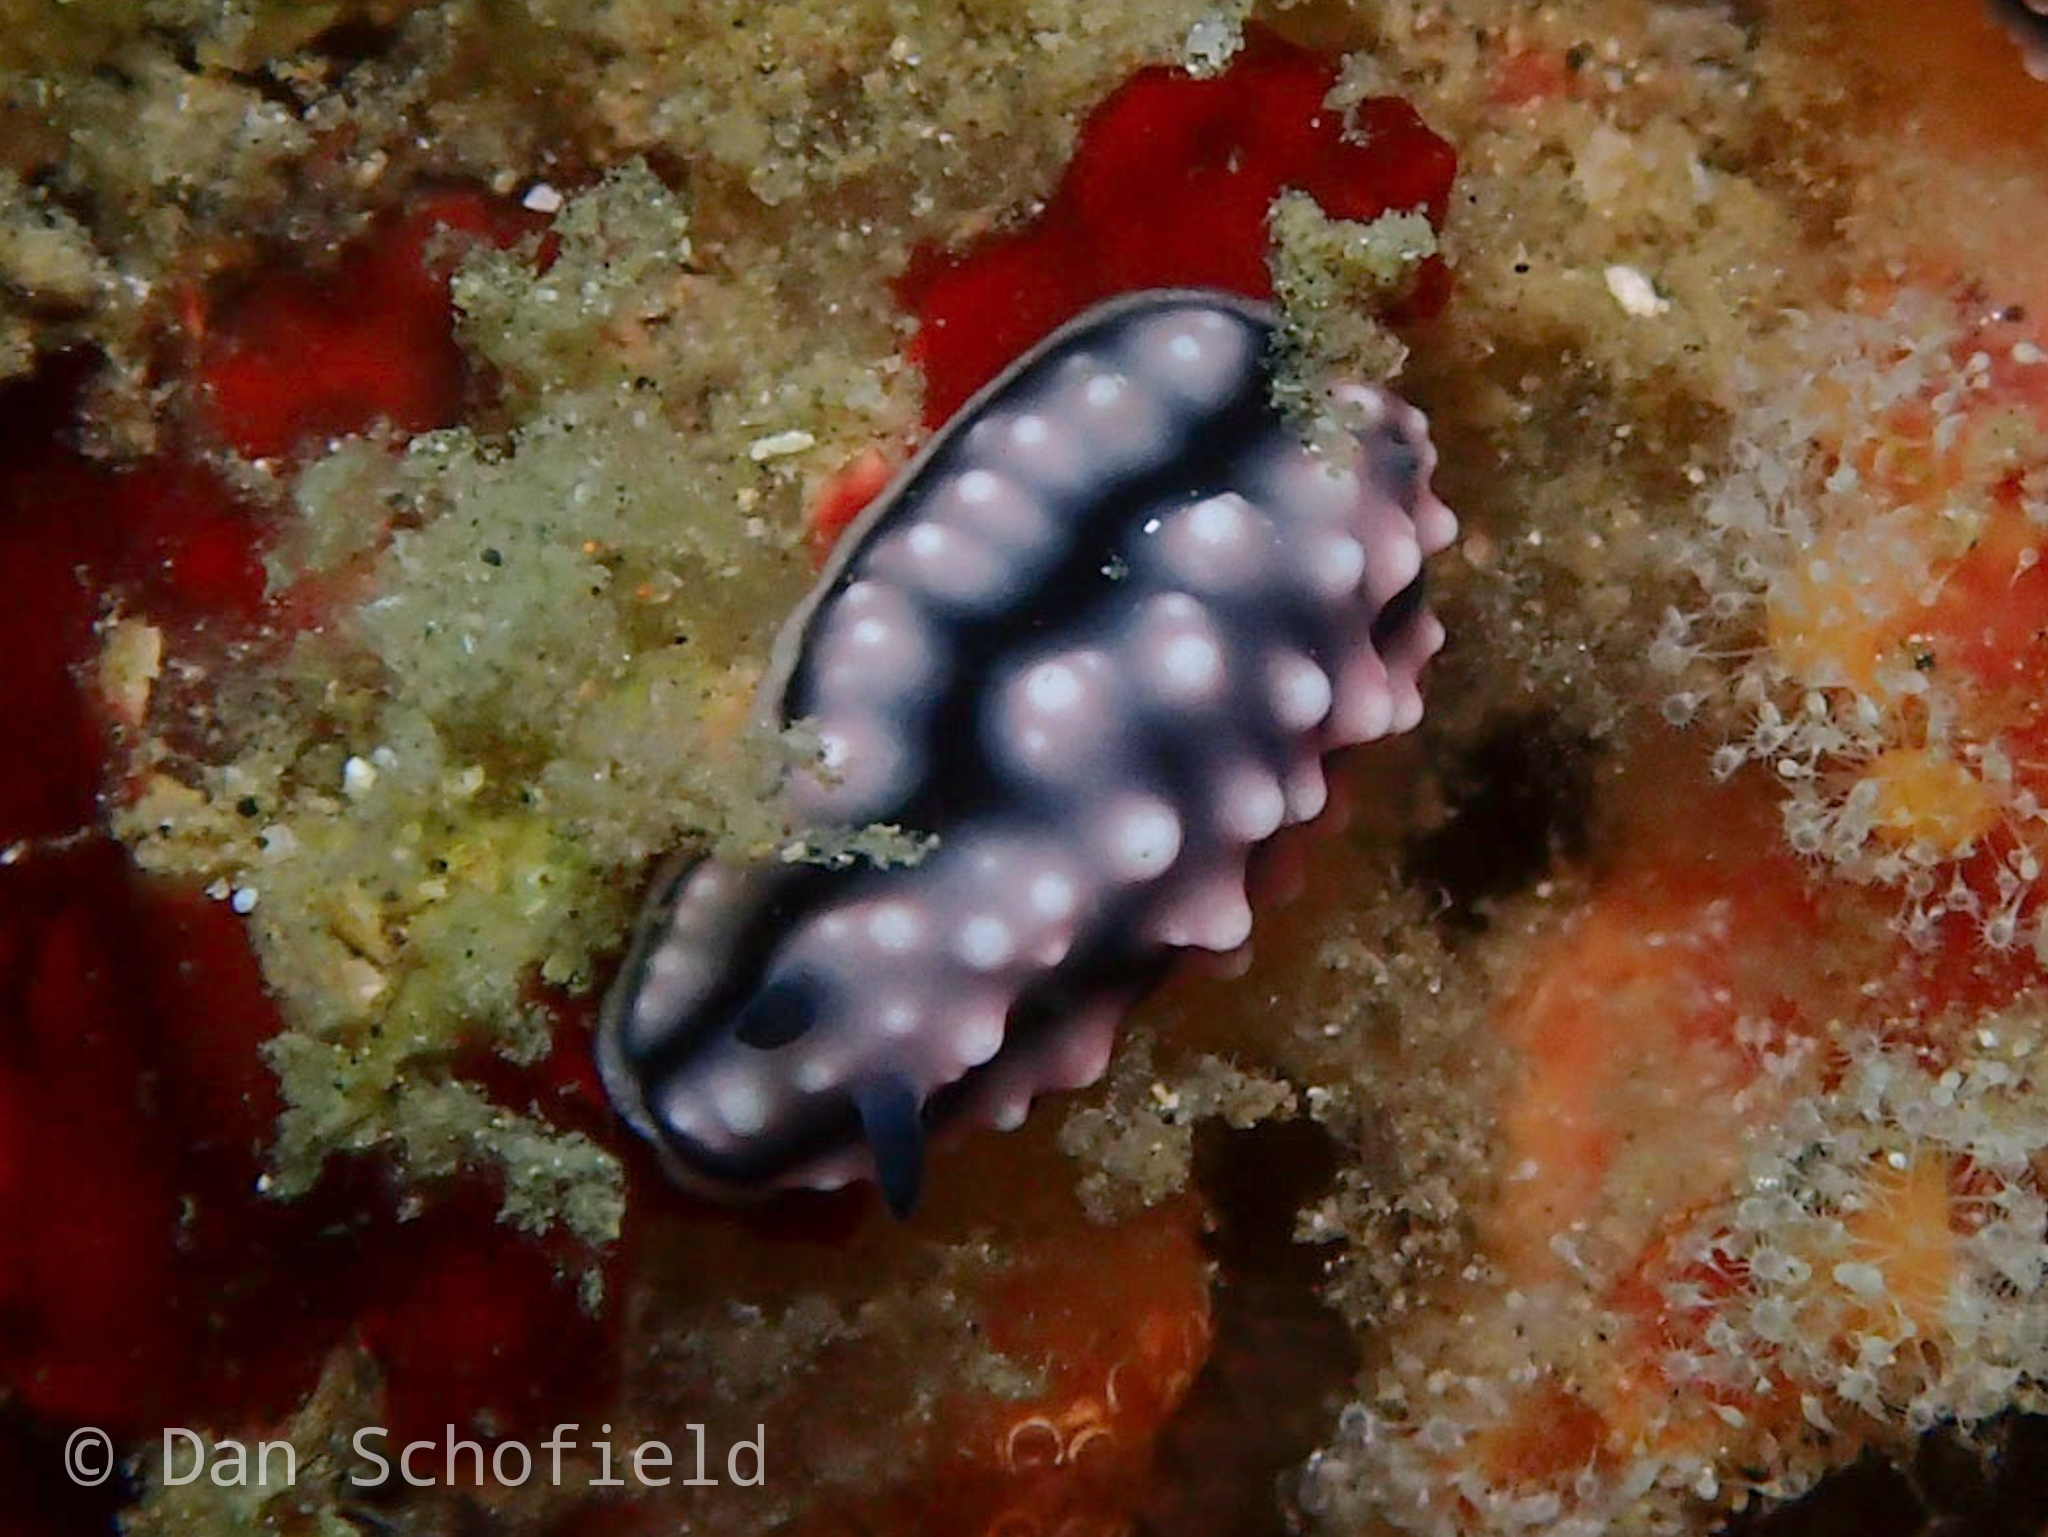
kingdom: Animalia
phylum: Mollusca
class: Gastropoda
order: Nudibranchia
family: Phyllidiidae
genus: Phyllidiella
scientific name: Phyllidiella pustulosa
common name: Pustular phyllidia
